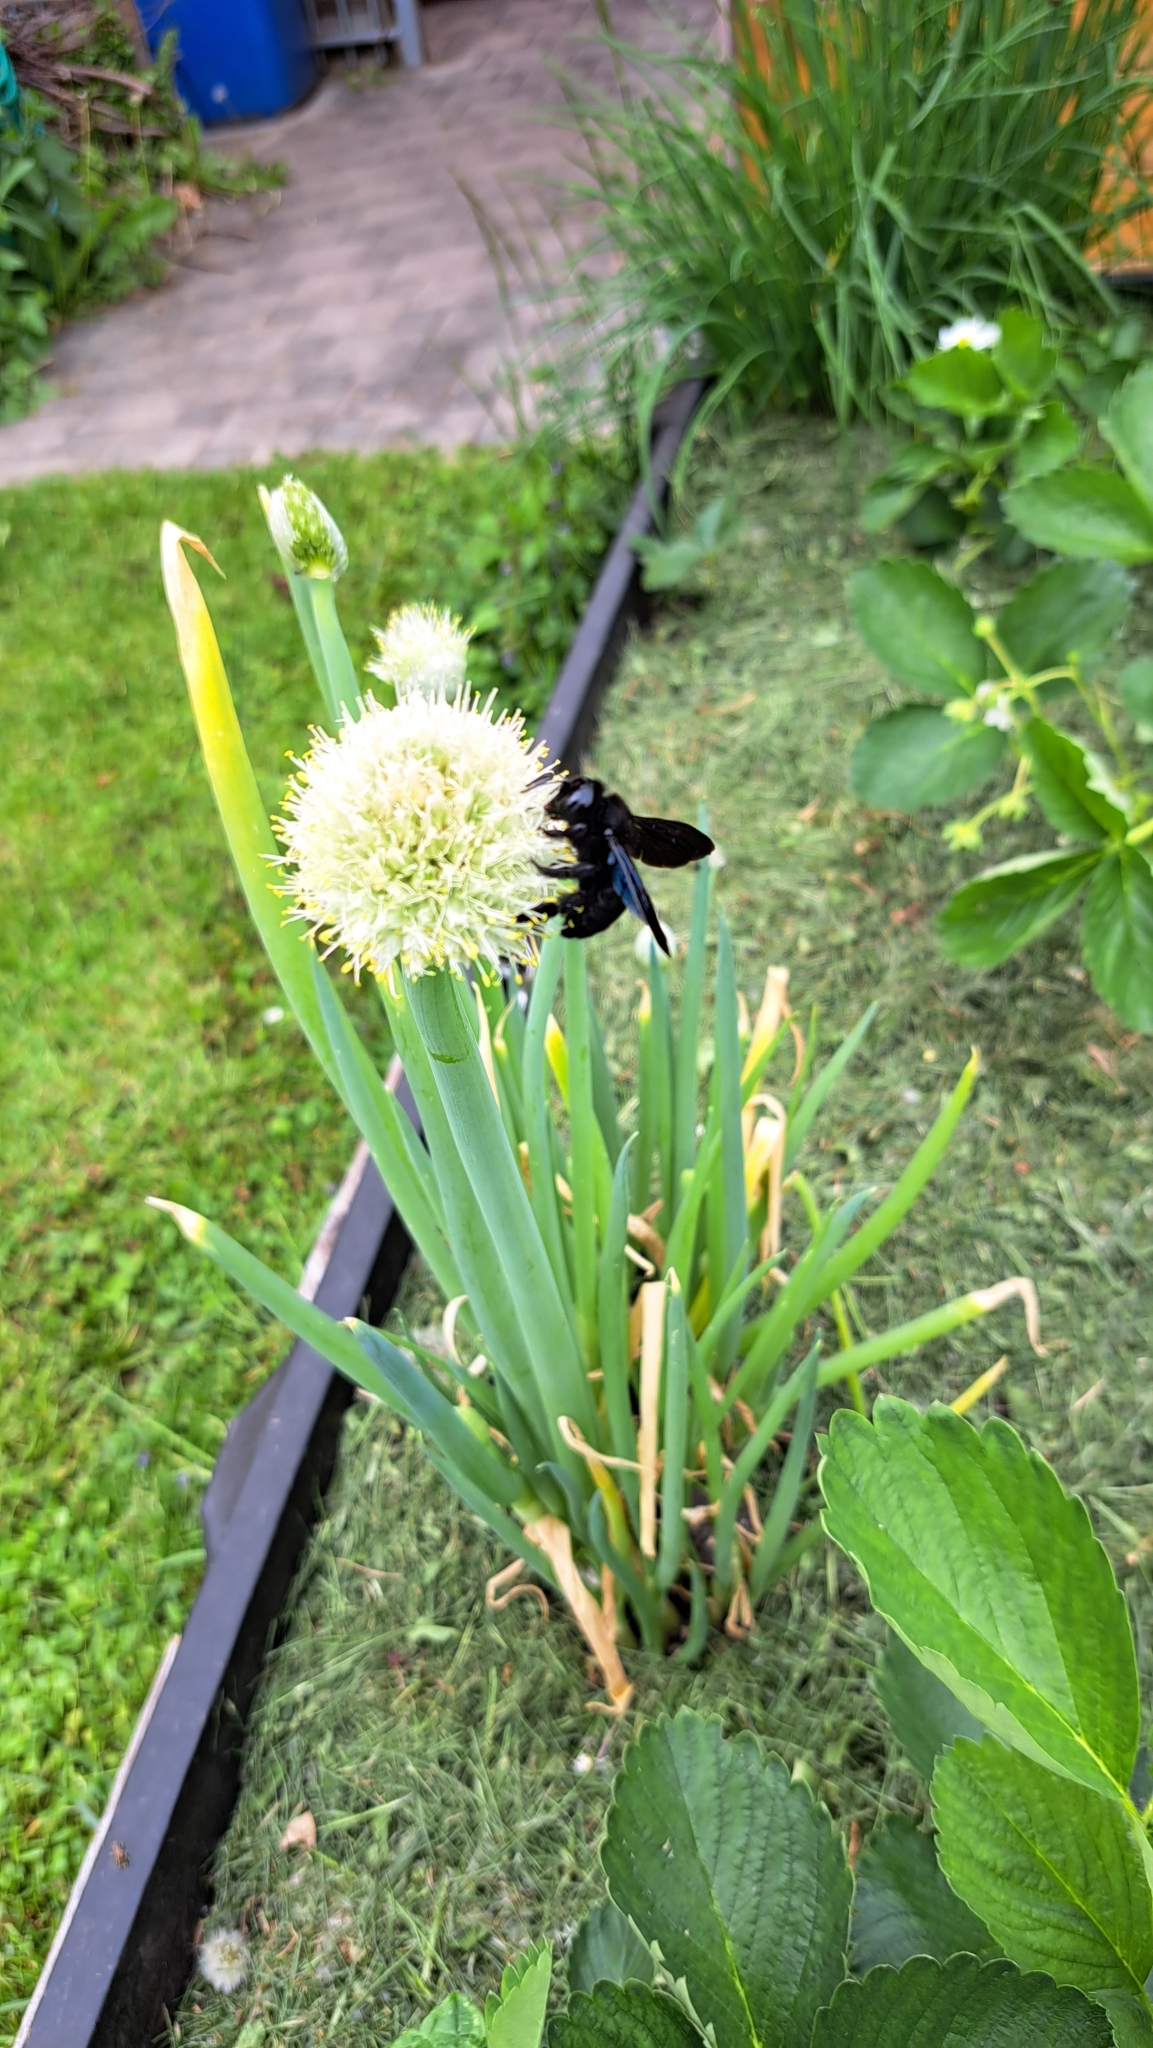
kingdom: Animalia
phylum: Arthropoda
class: Insecta
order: Hymenoptera
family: Apidae
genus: Xylocopa
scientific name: Xylocopa
